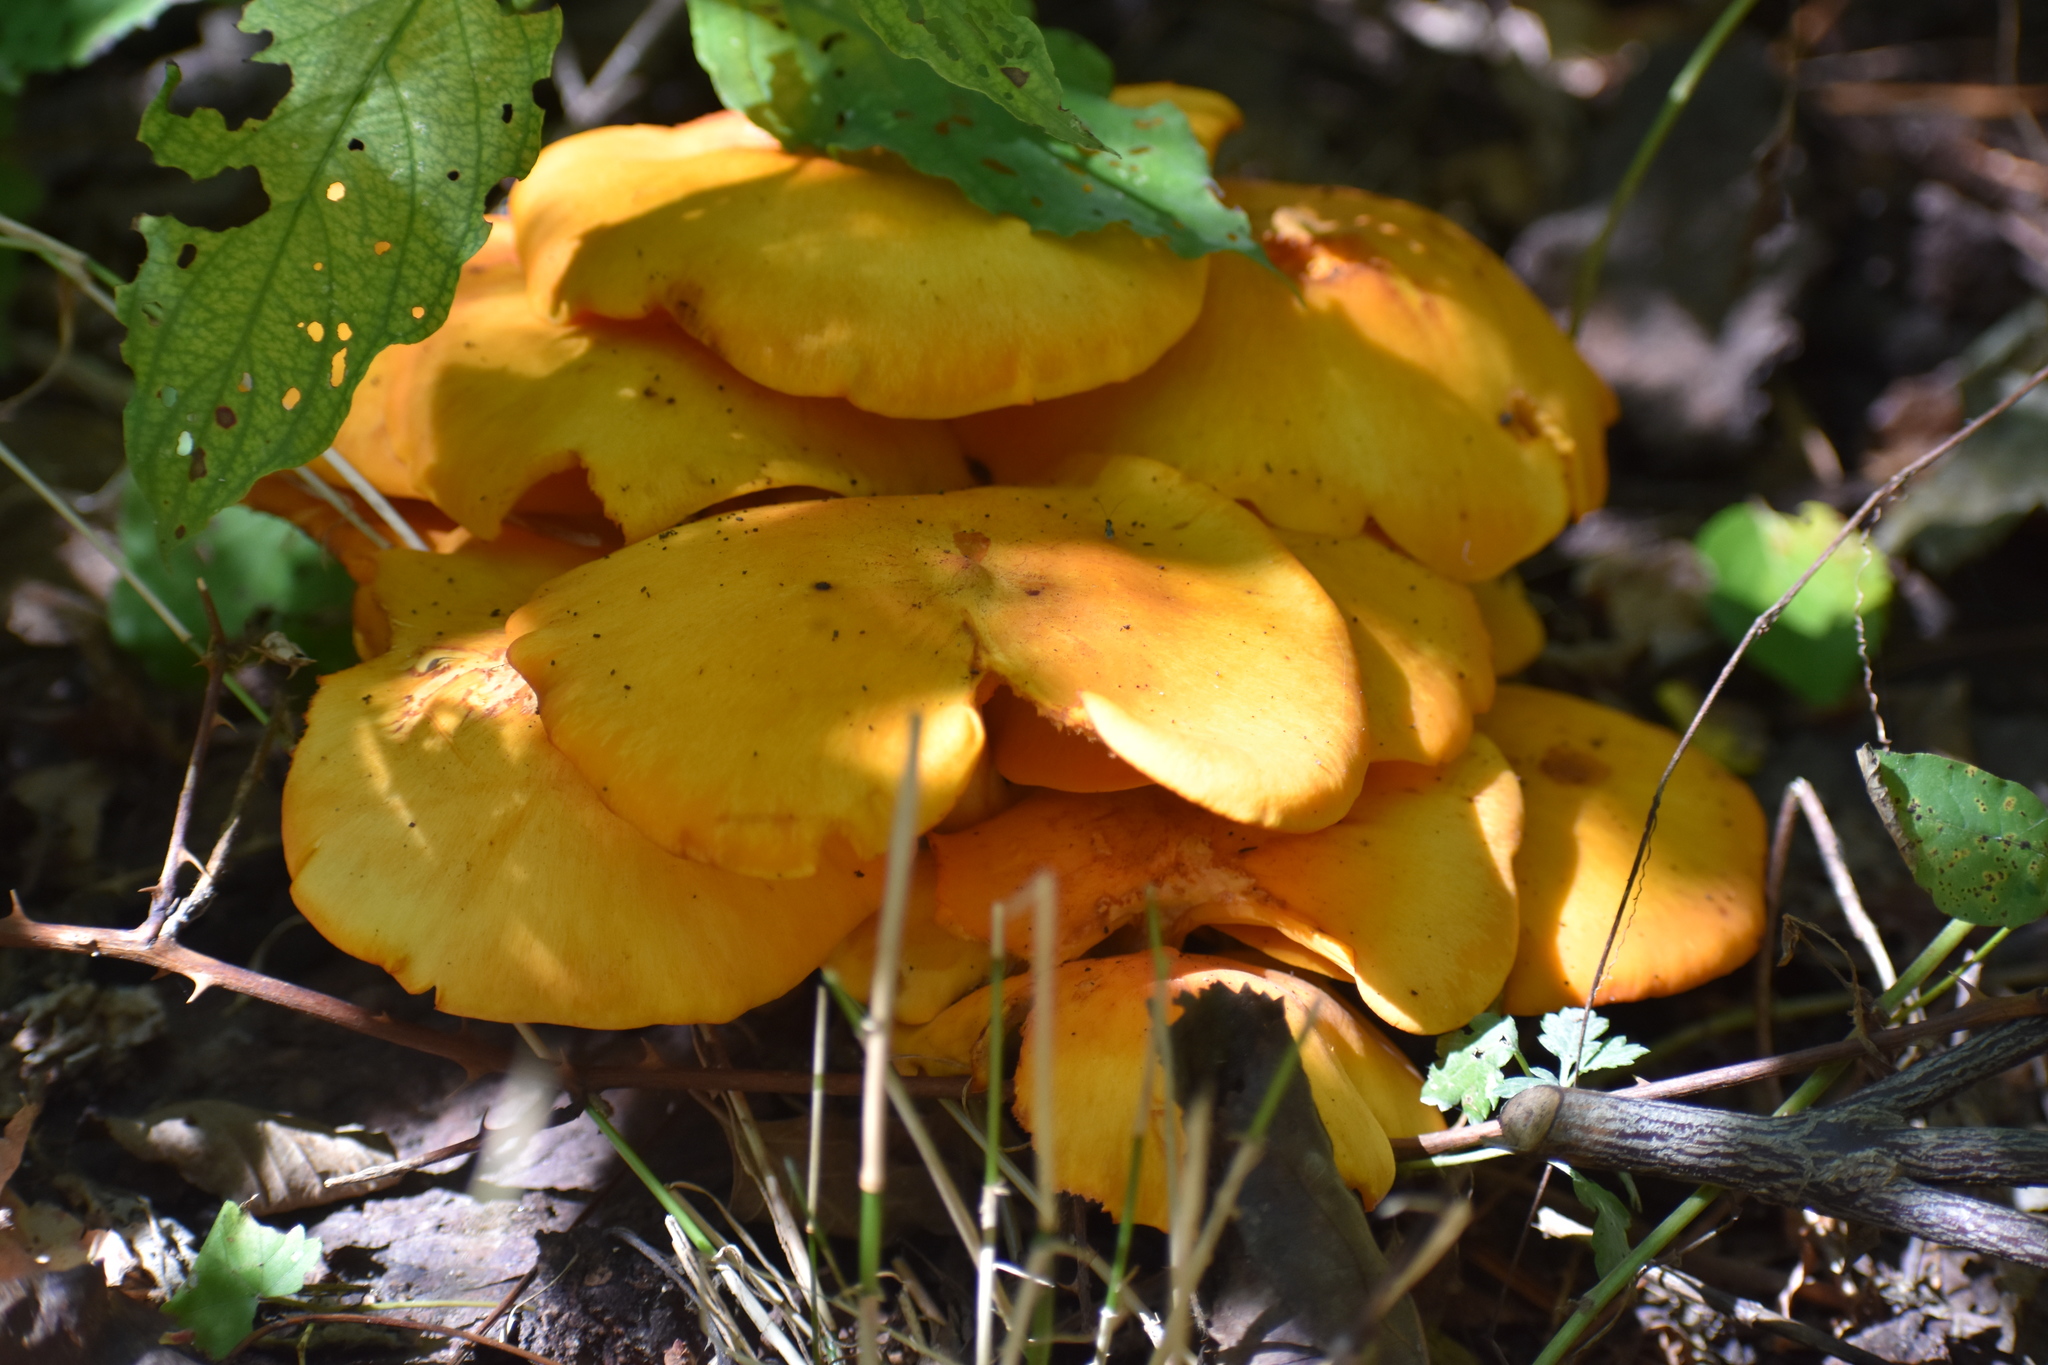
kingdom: Fungi
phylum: Basidiomycota
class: Agaricomycetes
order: Agaricales
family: Omphalotaceae
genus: Omphalotus
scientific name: Omphalotus illudens
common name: Jack o lantern
